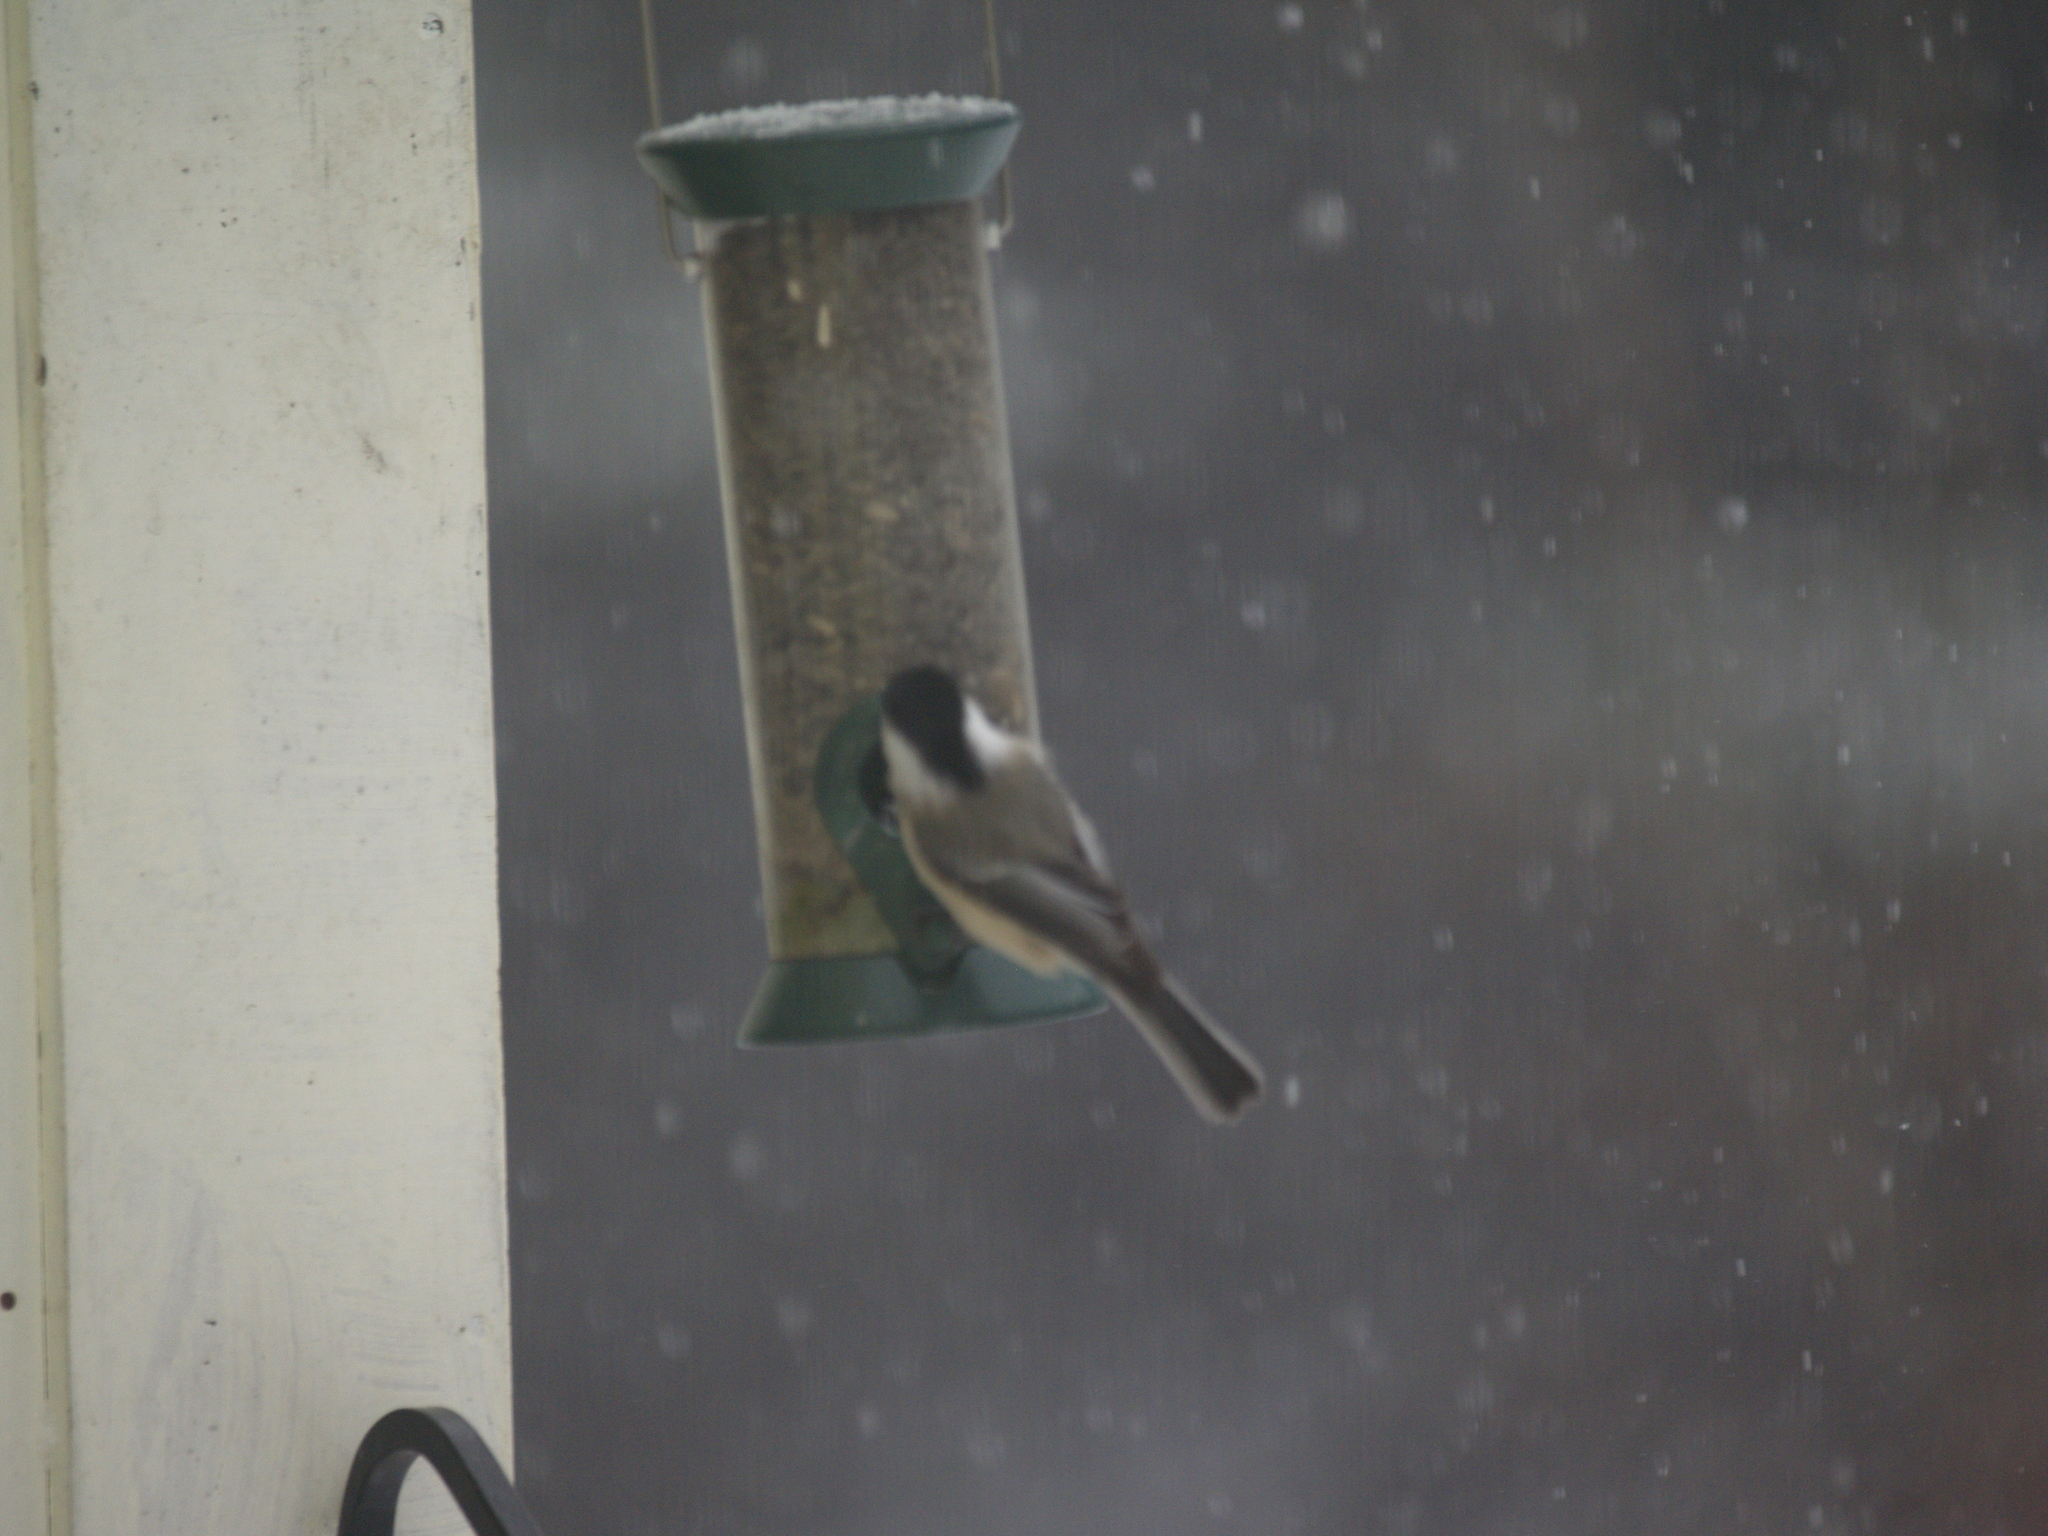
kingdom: Animalia
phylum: Chordata
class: Aves
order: Passeriformes
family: Paridae
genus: Poecile
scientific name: Poecile atricapillus
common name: Black-capped chickadee
